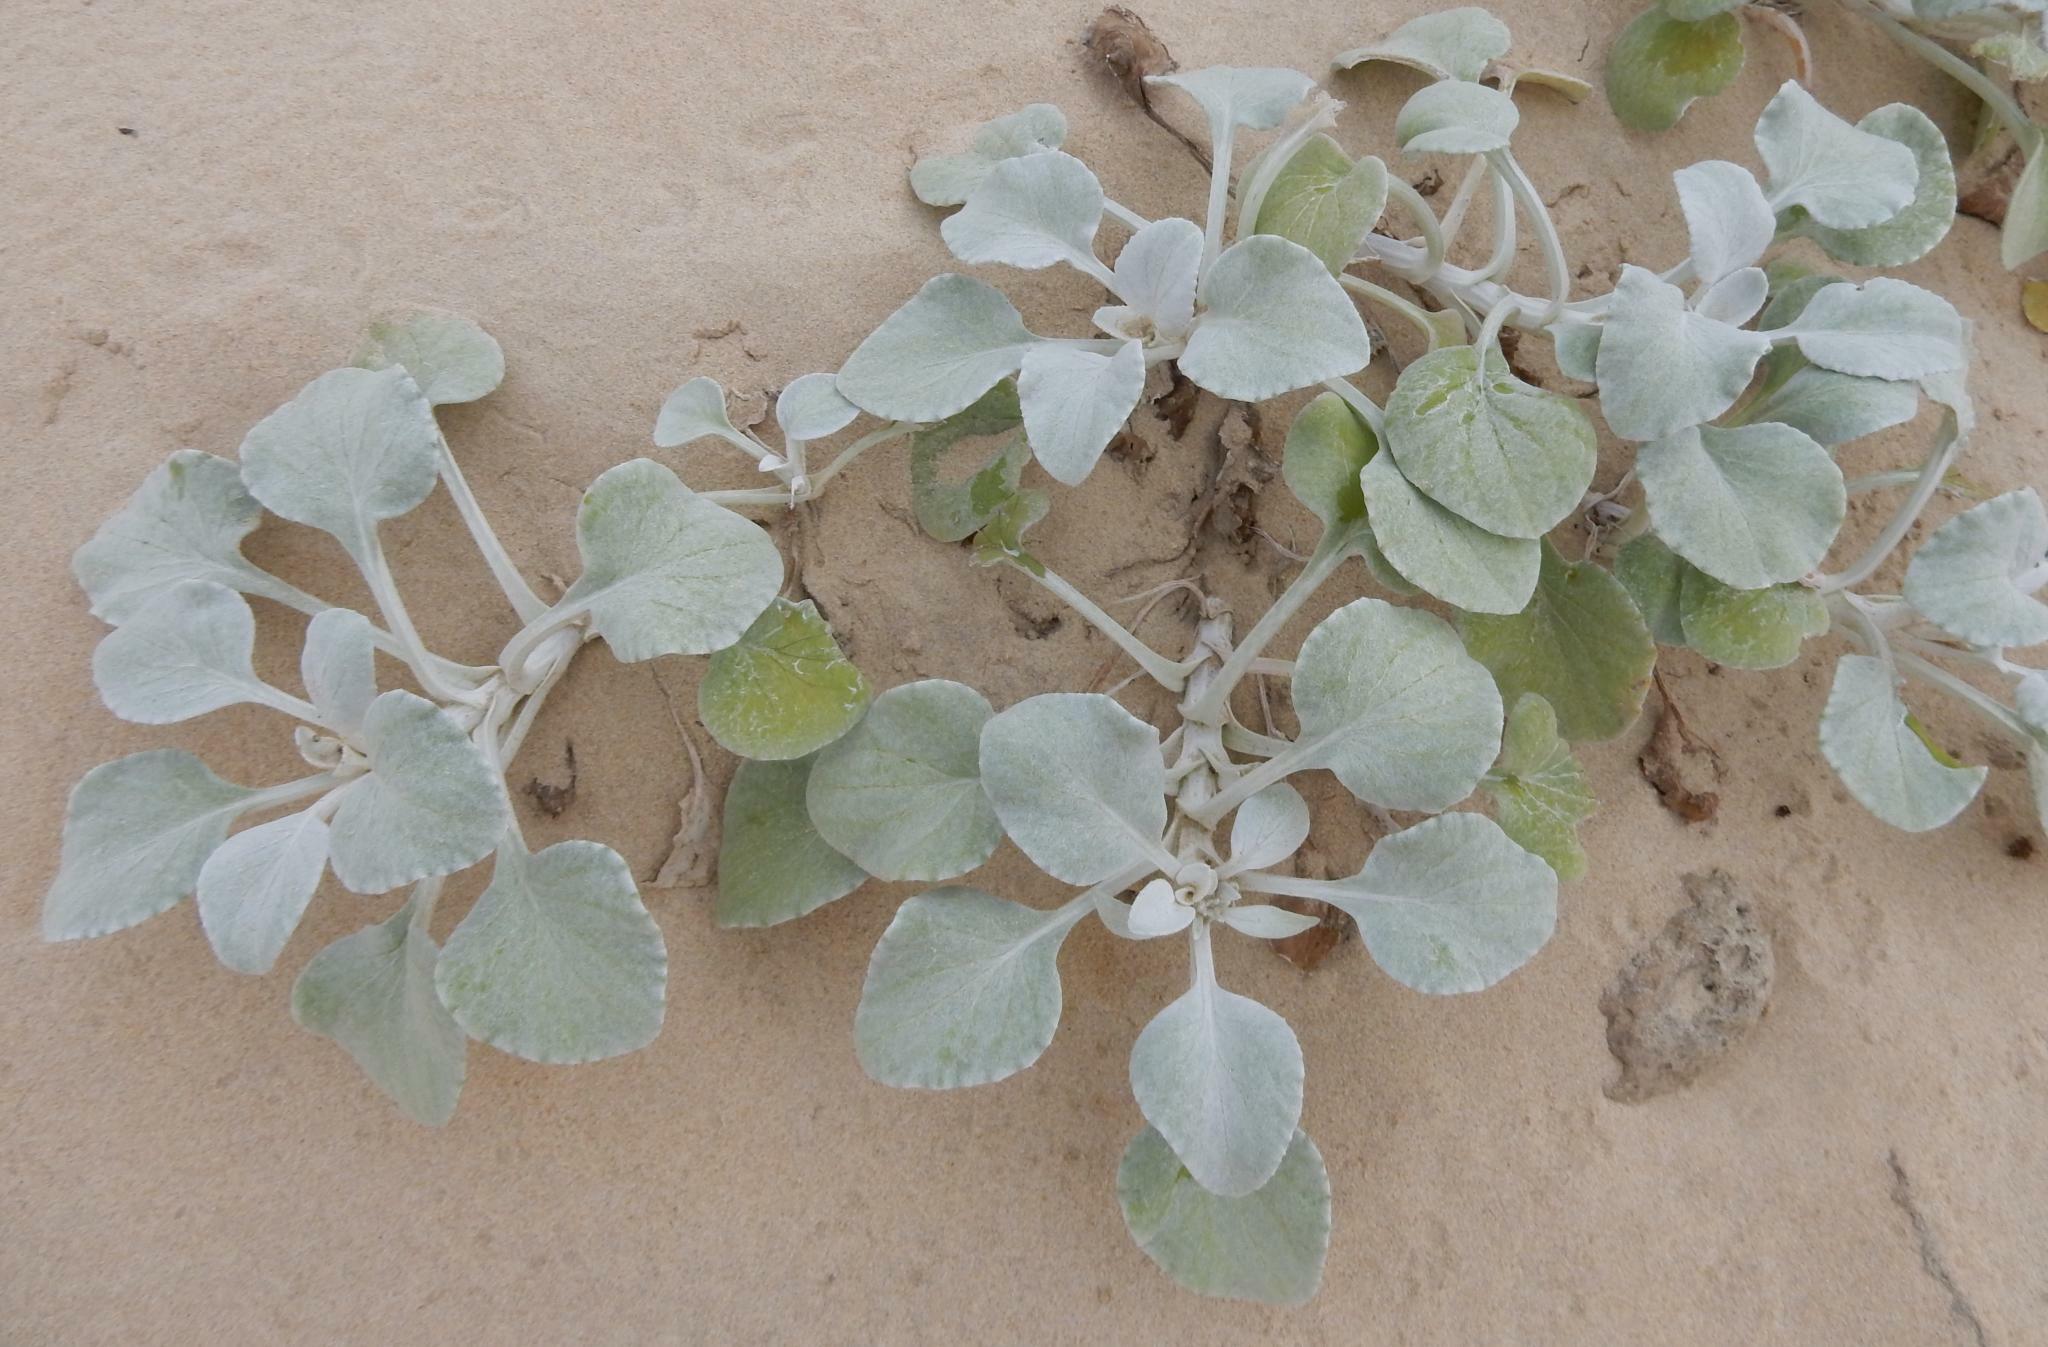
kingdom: Plantae
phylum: Tracheophyta
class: Magnoliopsida
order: Asterales
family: Asteraceae
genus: Arctotheca
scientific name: Arctotheca populifolia
